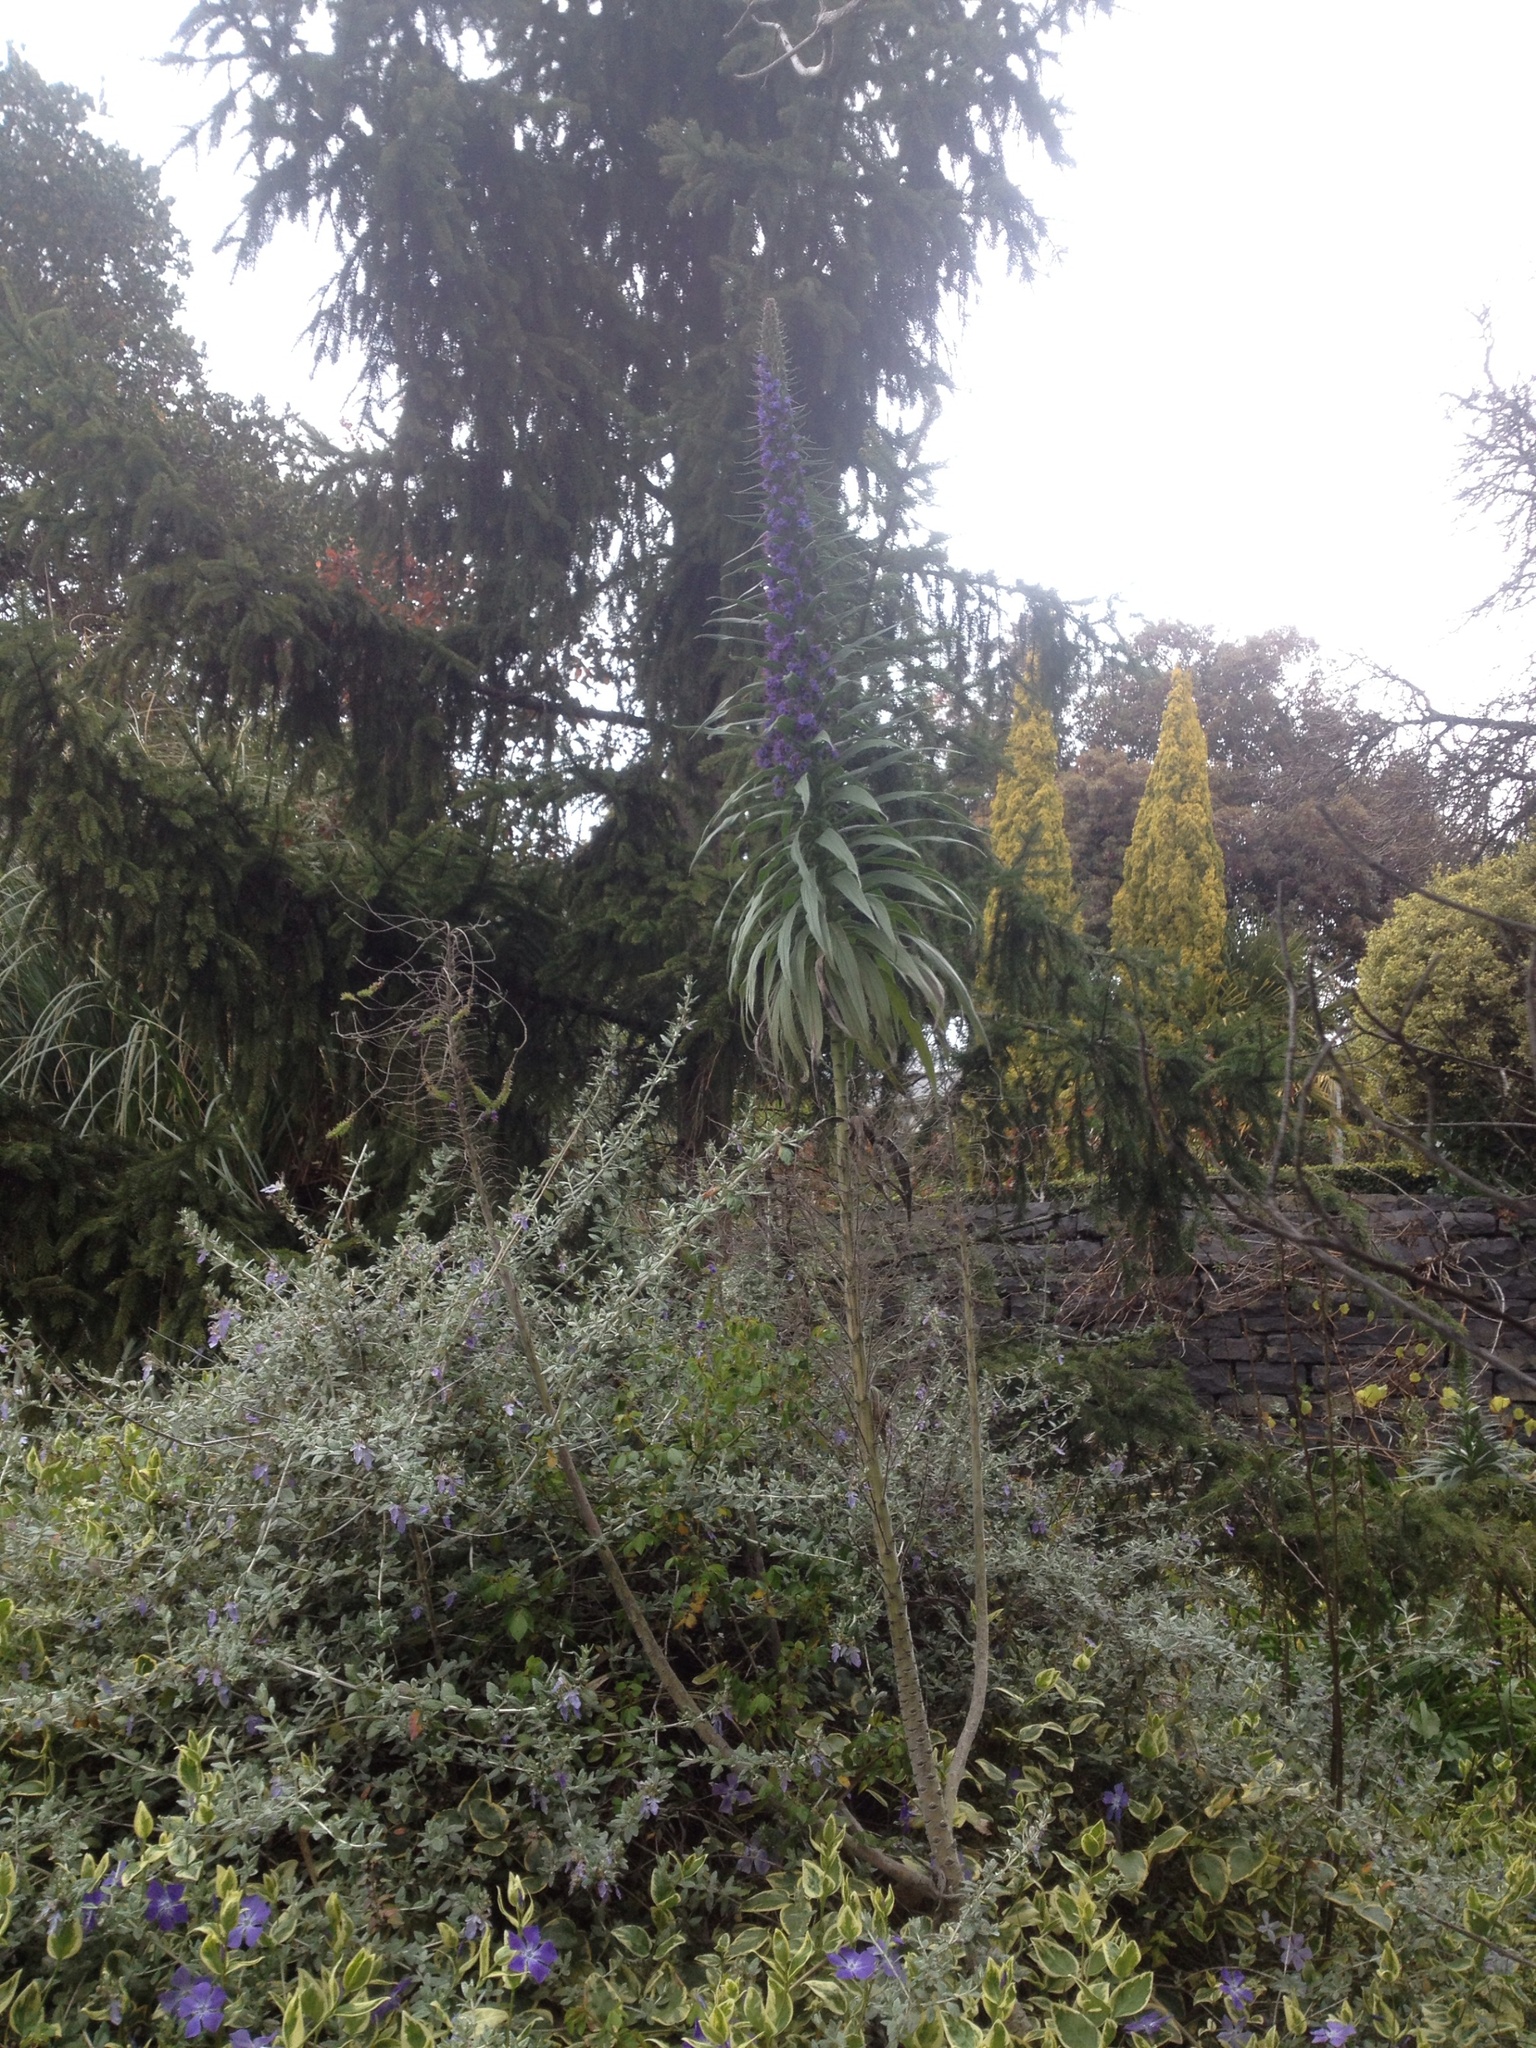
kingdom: Plantae
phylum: Tracheophyta
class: Magnoliopsida
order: Boraginales
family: Boraginaceae
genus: Echium
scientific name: Echium pininana
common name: Giant viper's-bugloss
